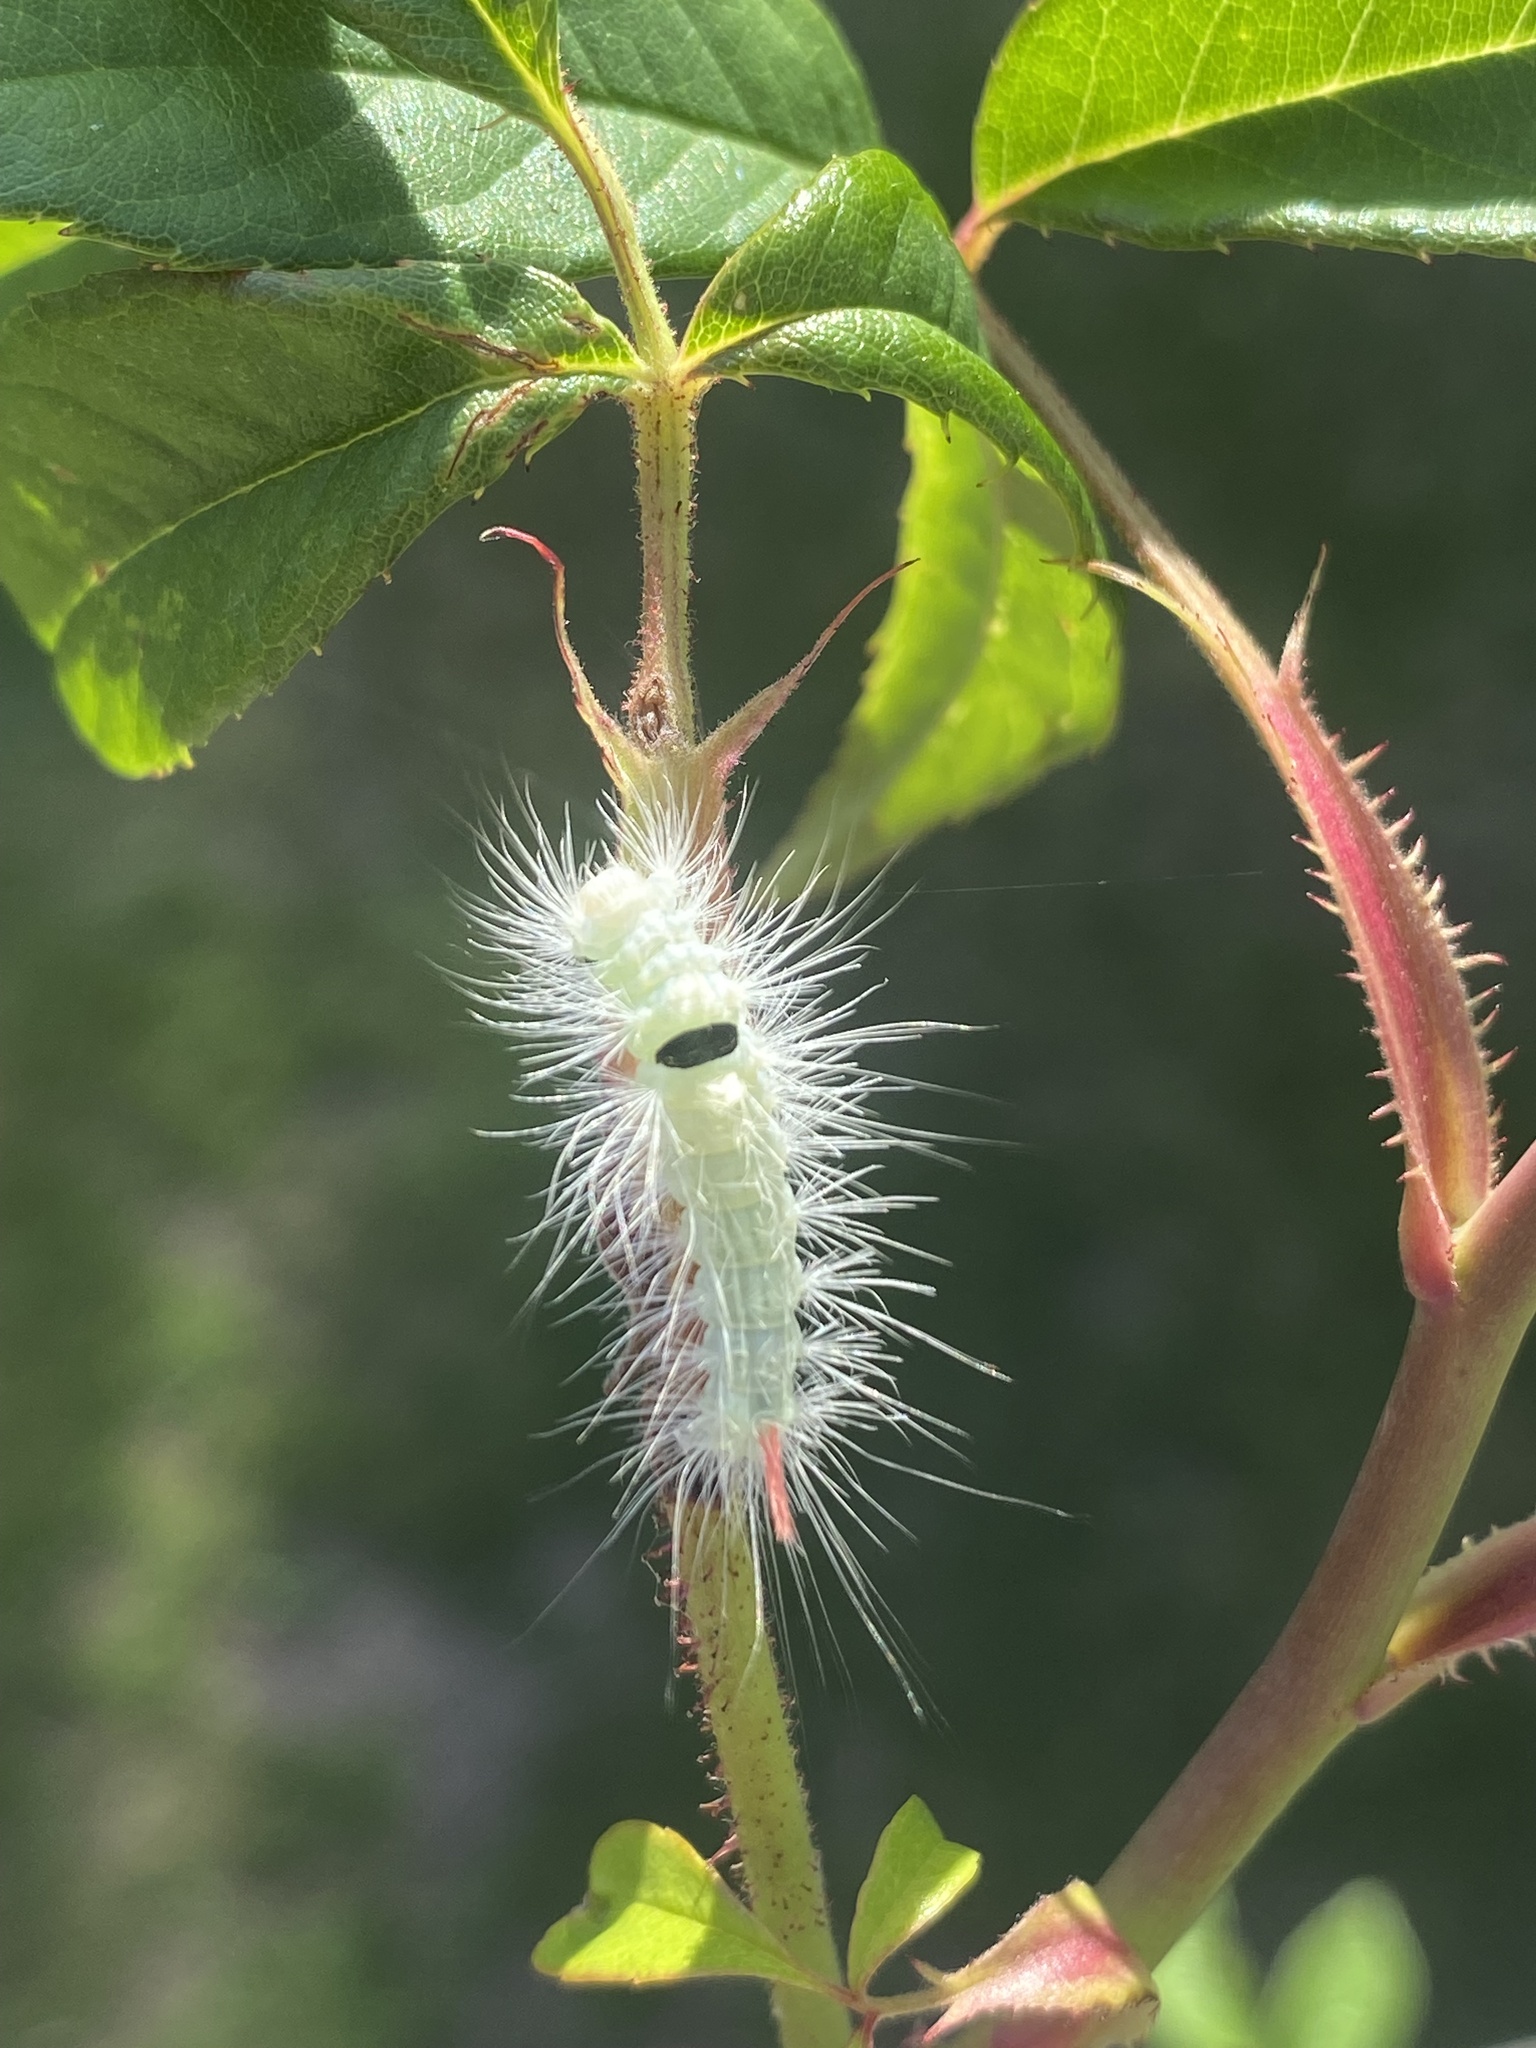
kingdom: Animalia
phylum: Arthropoda
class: Insecta
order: Lepidoptera
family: Erebidae
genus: Calliteara
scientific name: Calliteara pudibunda
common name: Pale tussock
